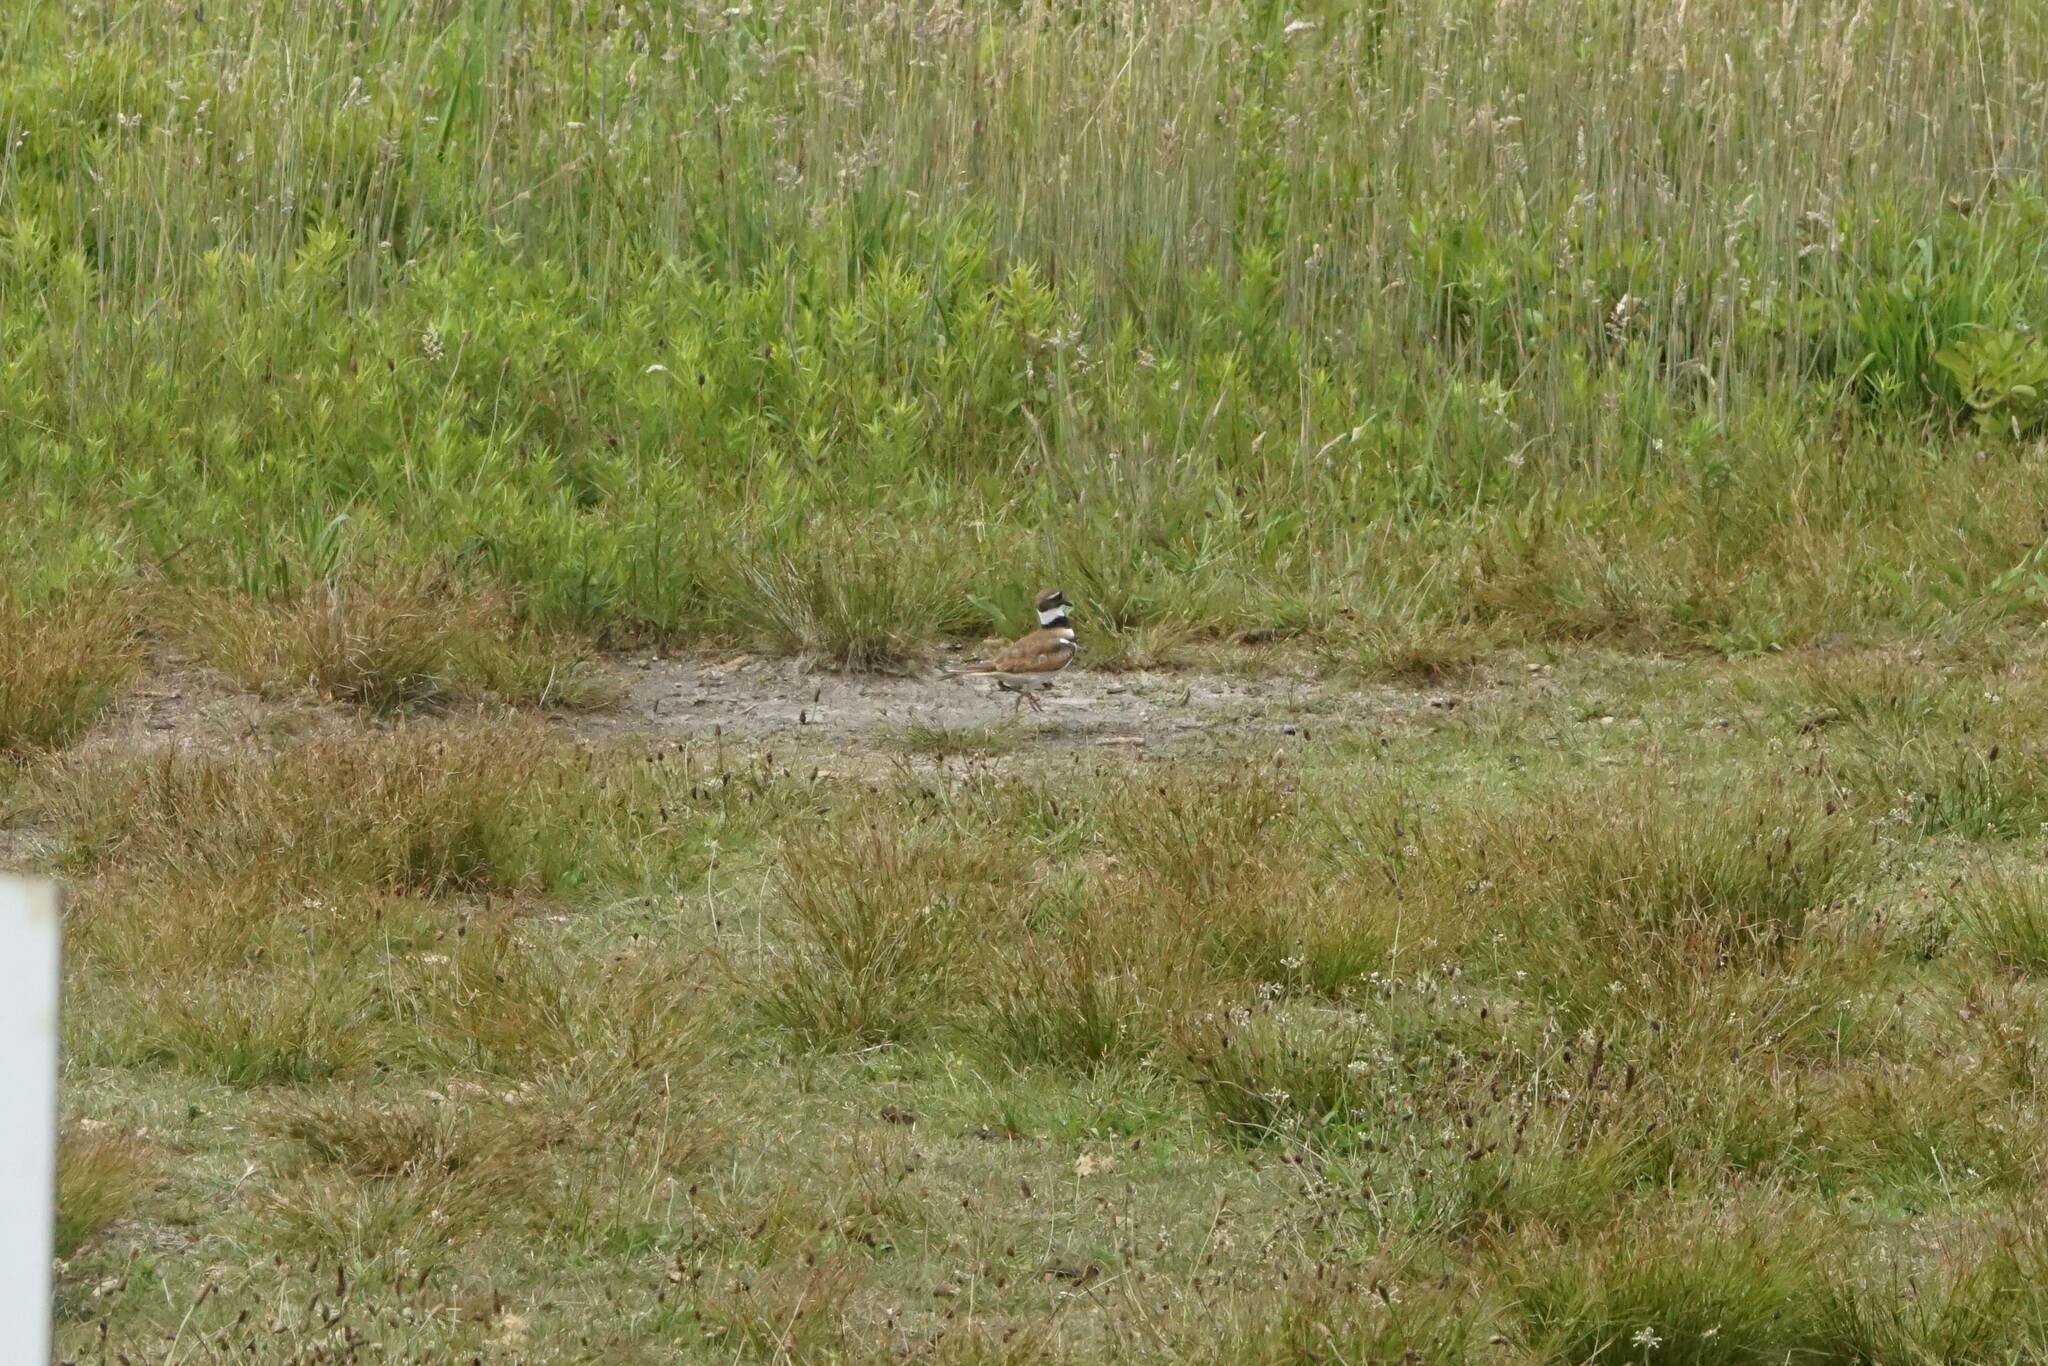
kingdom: Animalia
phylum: Chordata
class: Aves
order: Charadriiformes
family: Charadriidae
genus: Charadrius
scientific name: Charadrius vociferus
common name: Killdeer
